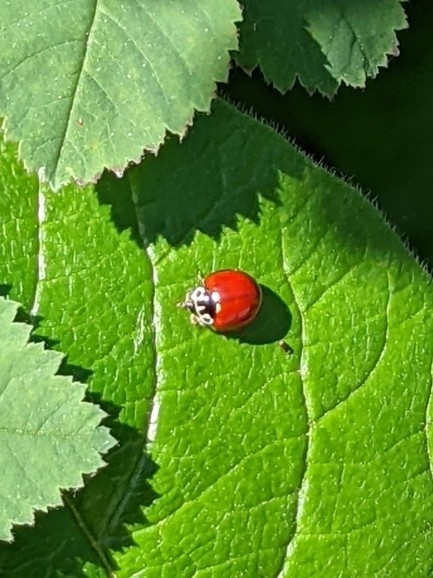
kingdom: Animalia
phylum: Arthropoda
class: Insecta
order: Coleoptera
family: Coccinellidae
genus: Cycloneda
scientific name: Cycloneda polita
